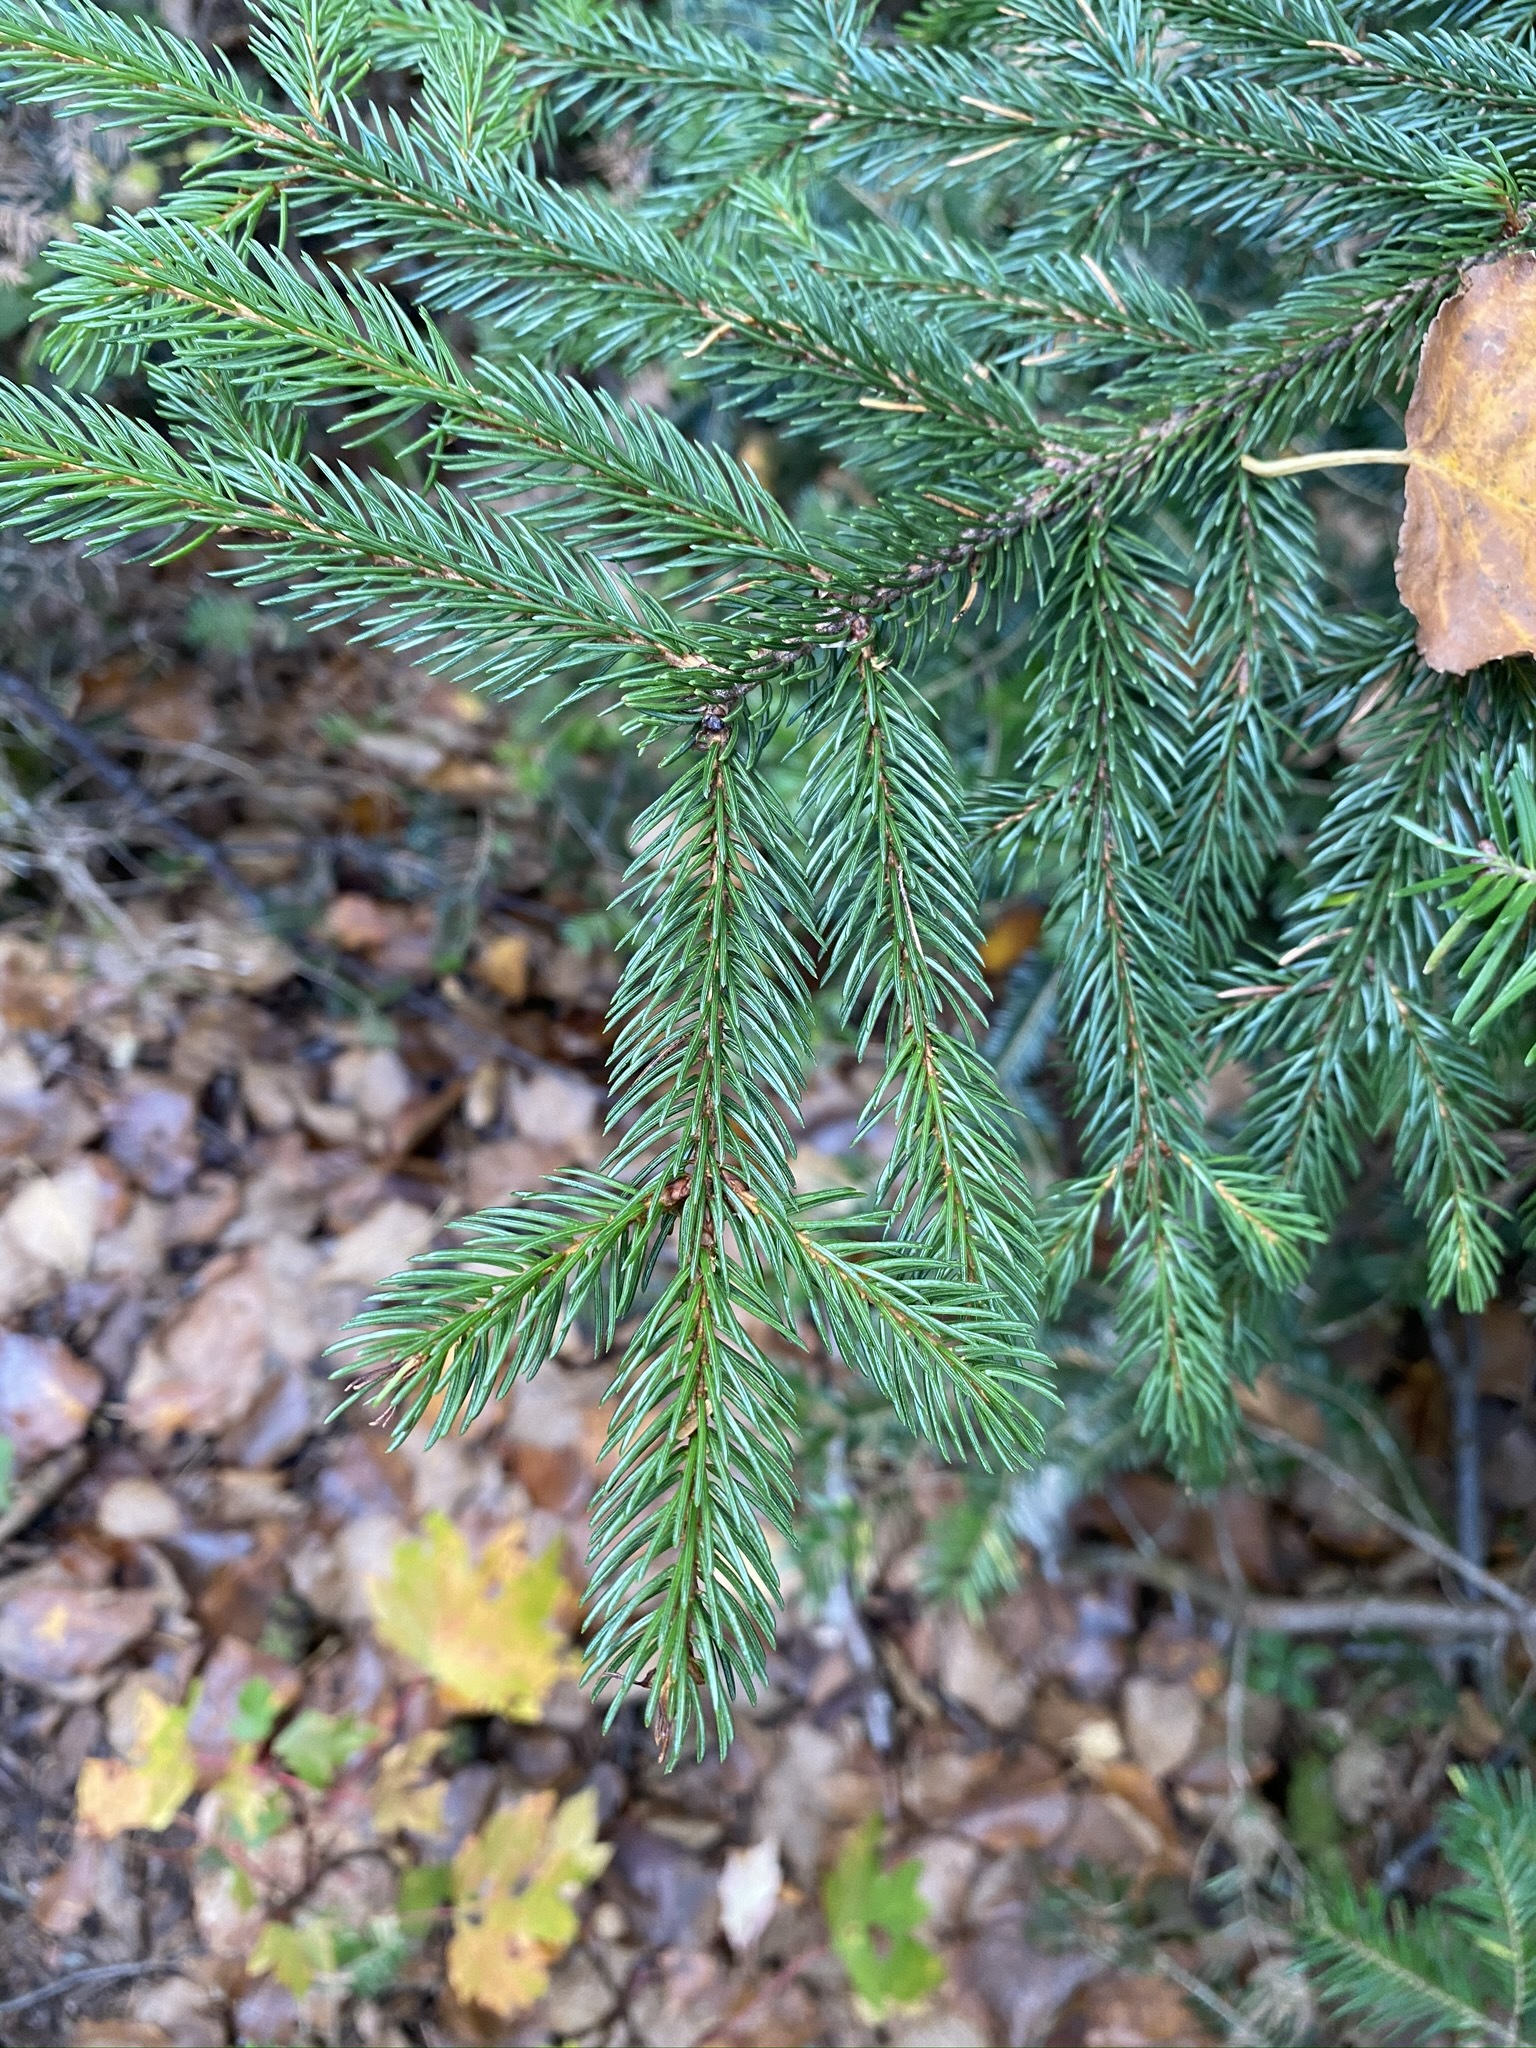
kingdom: Plantae
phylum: Tracheophyta
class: Pinopsida
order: Pinales
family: Pinaceae
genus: Picea
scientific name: Picea rubens
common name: Red spruce
